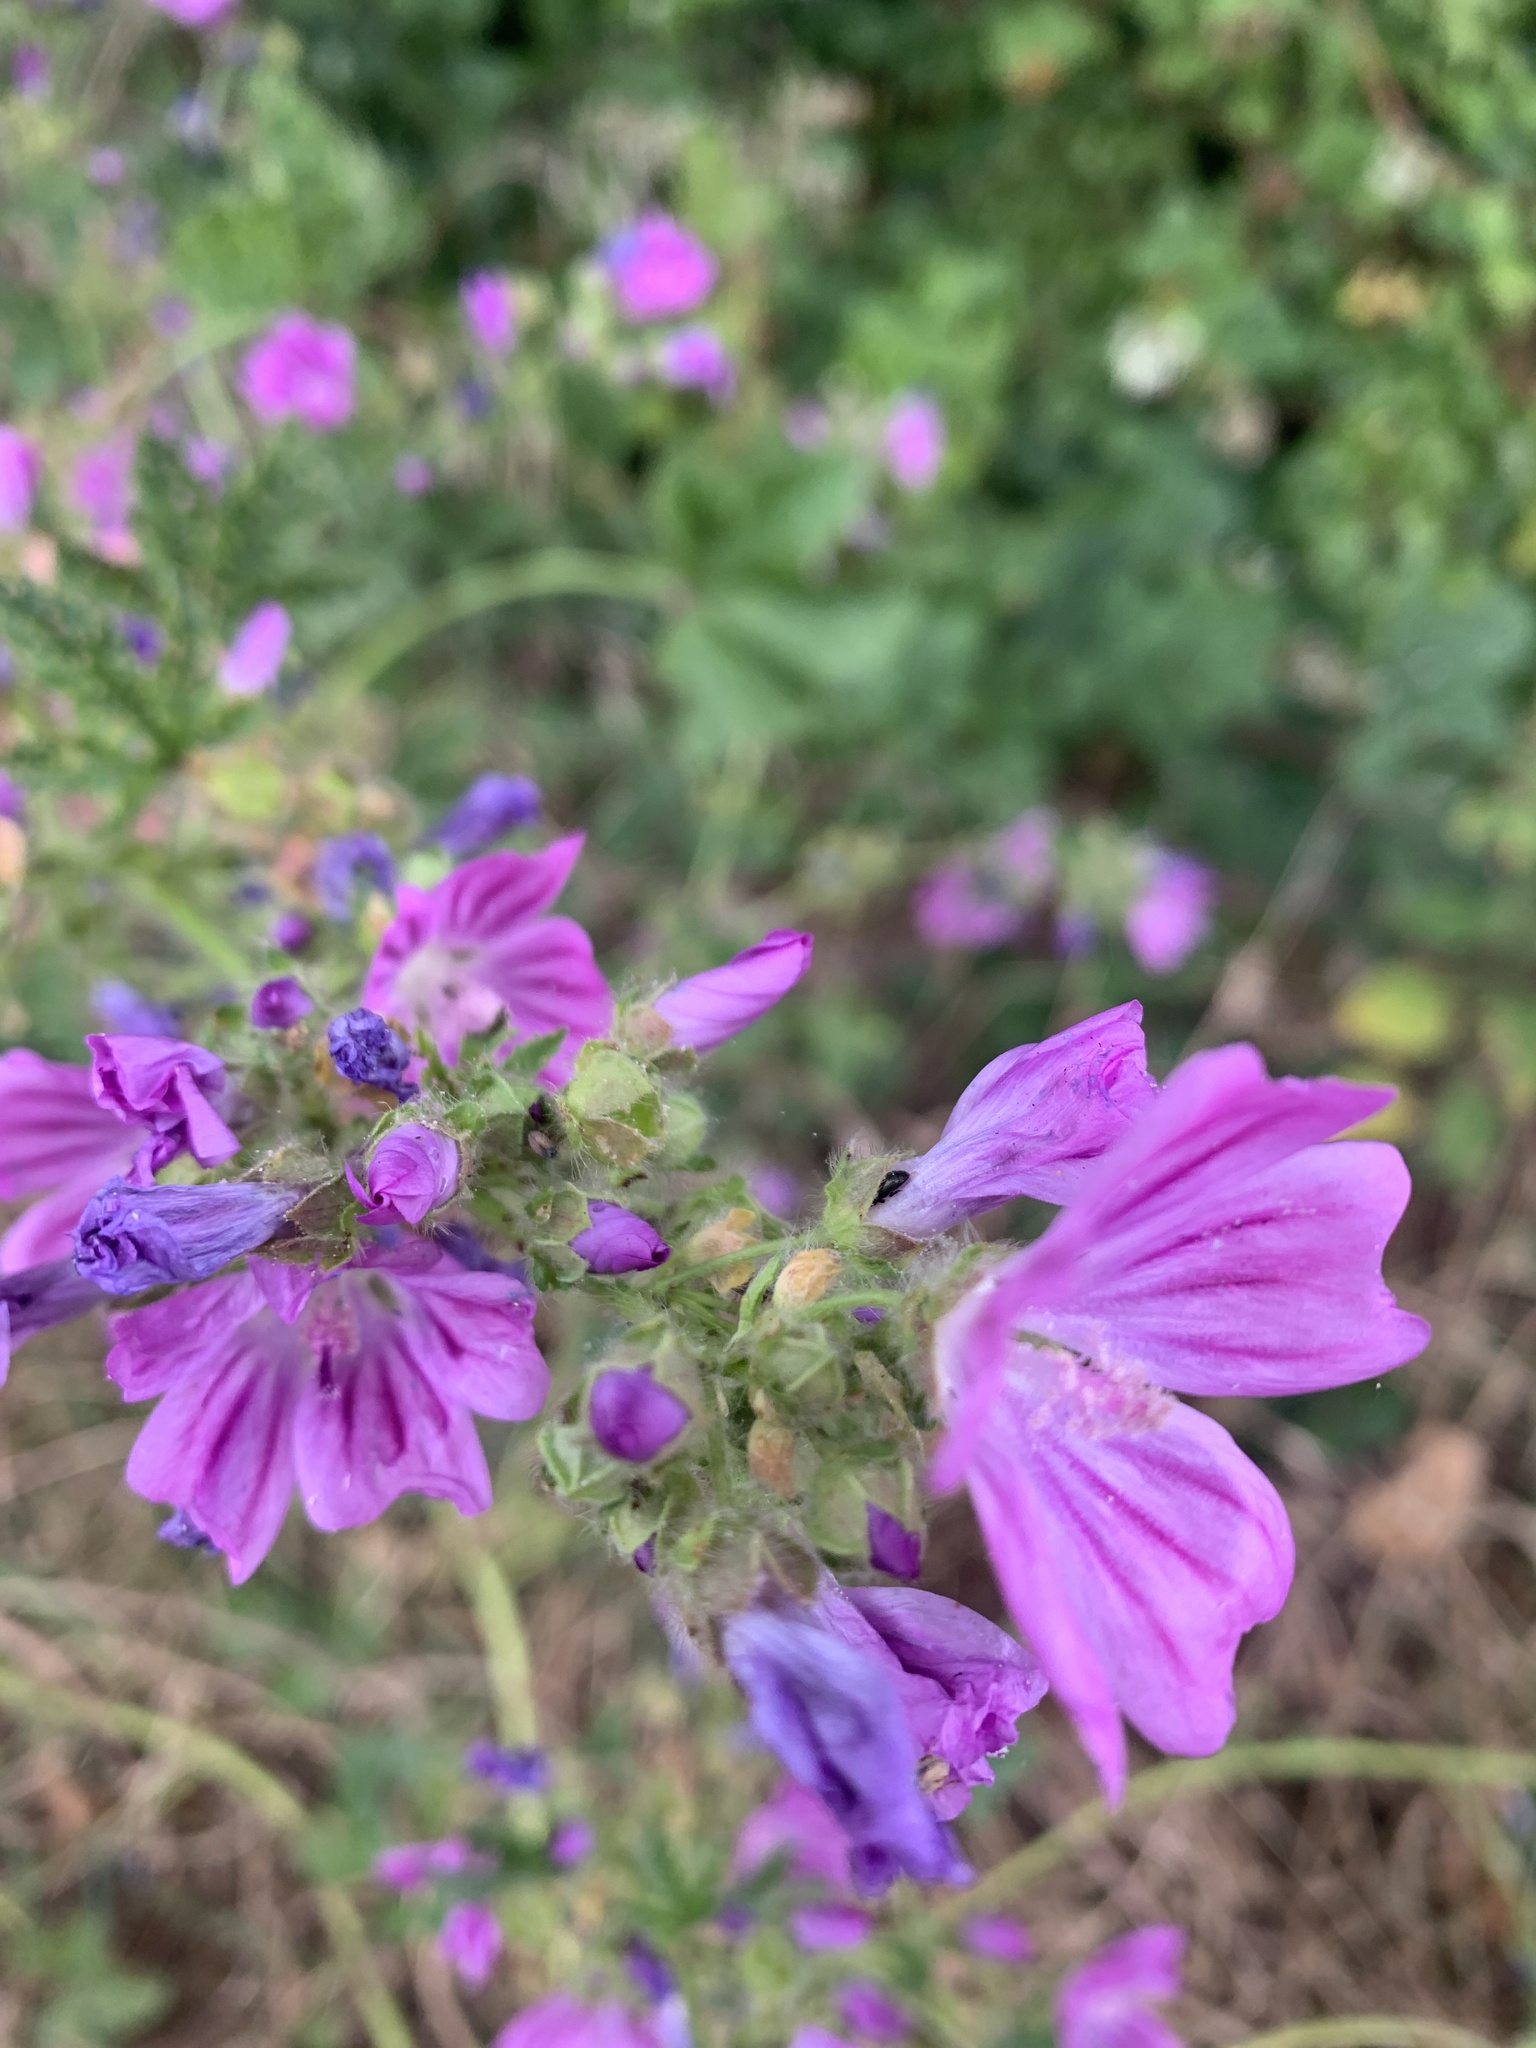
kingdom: Plantae
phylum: Tracheophyta
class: Magnoliopsida
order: Malvales
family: Malvaceae
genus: Malva
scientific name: Malva sylvestris
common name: Common mallow
